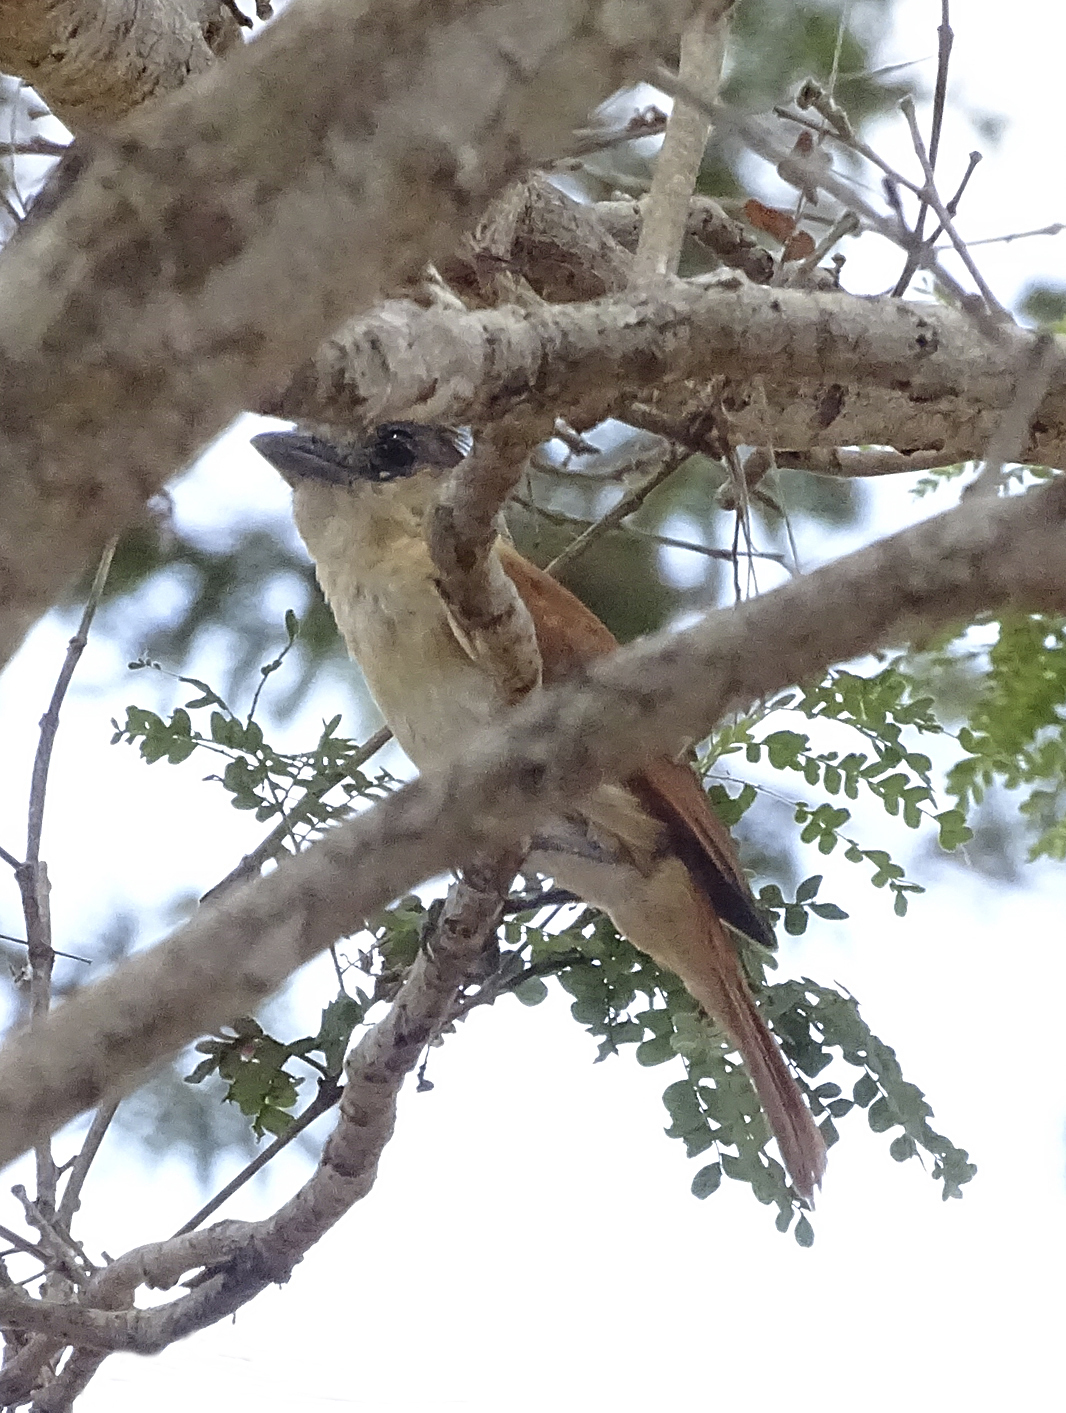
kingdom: Animalia
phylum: Chordata
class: Aves
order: Passeriformes
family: Cotingidae
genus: Pachyramphus
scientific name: Pachyramphus aglaiae
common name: Rose-throated becard
